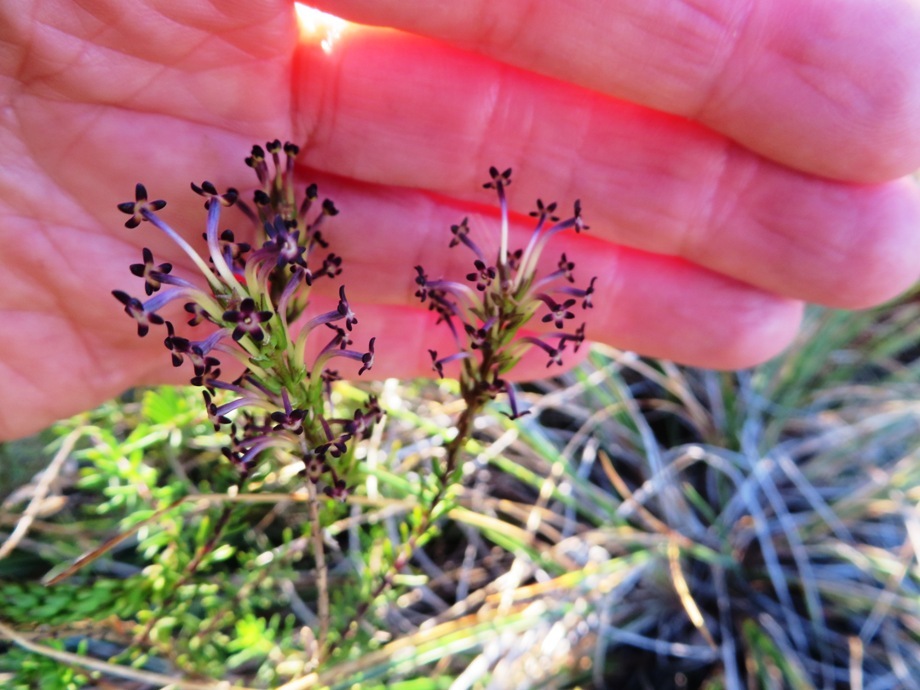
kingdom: Plantae
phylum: Tracheophyta
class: Magnoliopsida
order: Lamiales
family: Scrophulariaceae
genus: Microdon
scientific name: Microdon dubius
